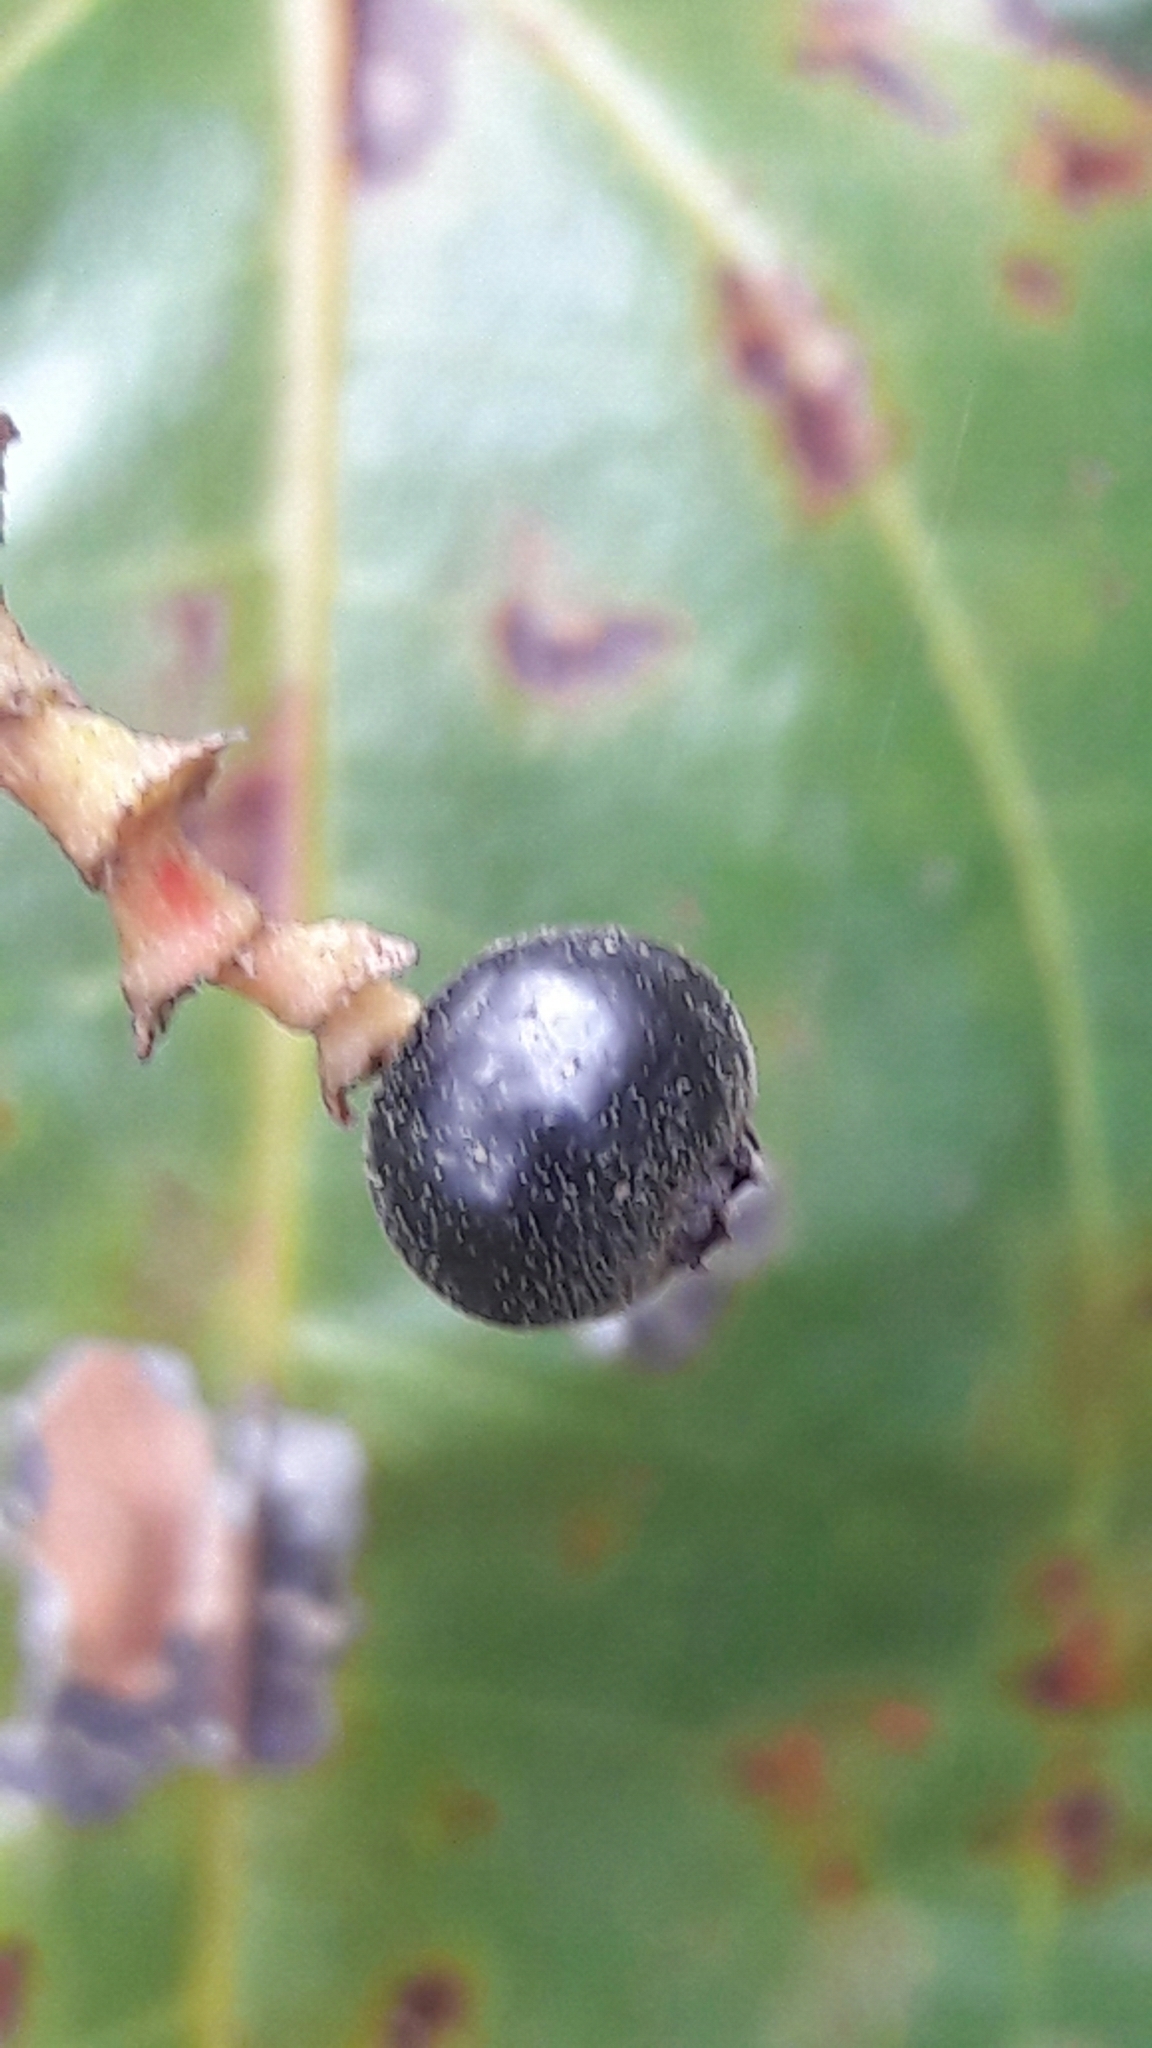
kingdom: Plantae
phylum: Tracheophyta
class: Magnoliopsida
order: Myrtales
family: Melastomataceae
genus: Miconia
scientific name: Miconia fallax
